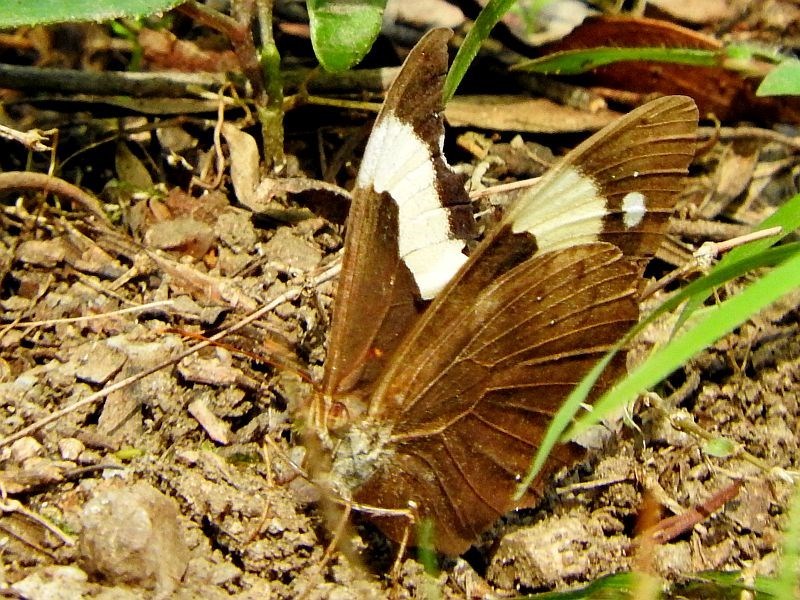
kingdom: Animalia
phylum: Arthropoda
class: Insecta
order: Lepidoptera
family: Nymphalidae
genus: Heteronympha
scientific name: Heteronympha mirifica
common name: Wonder brown
